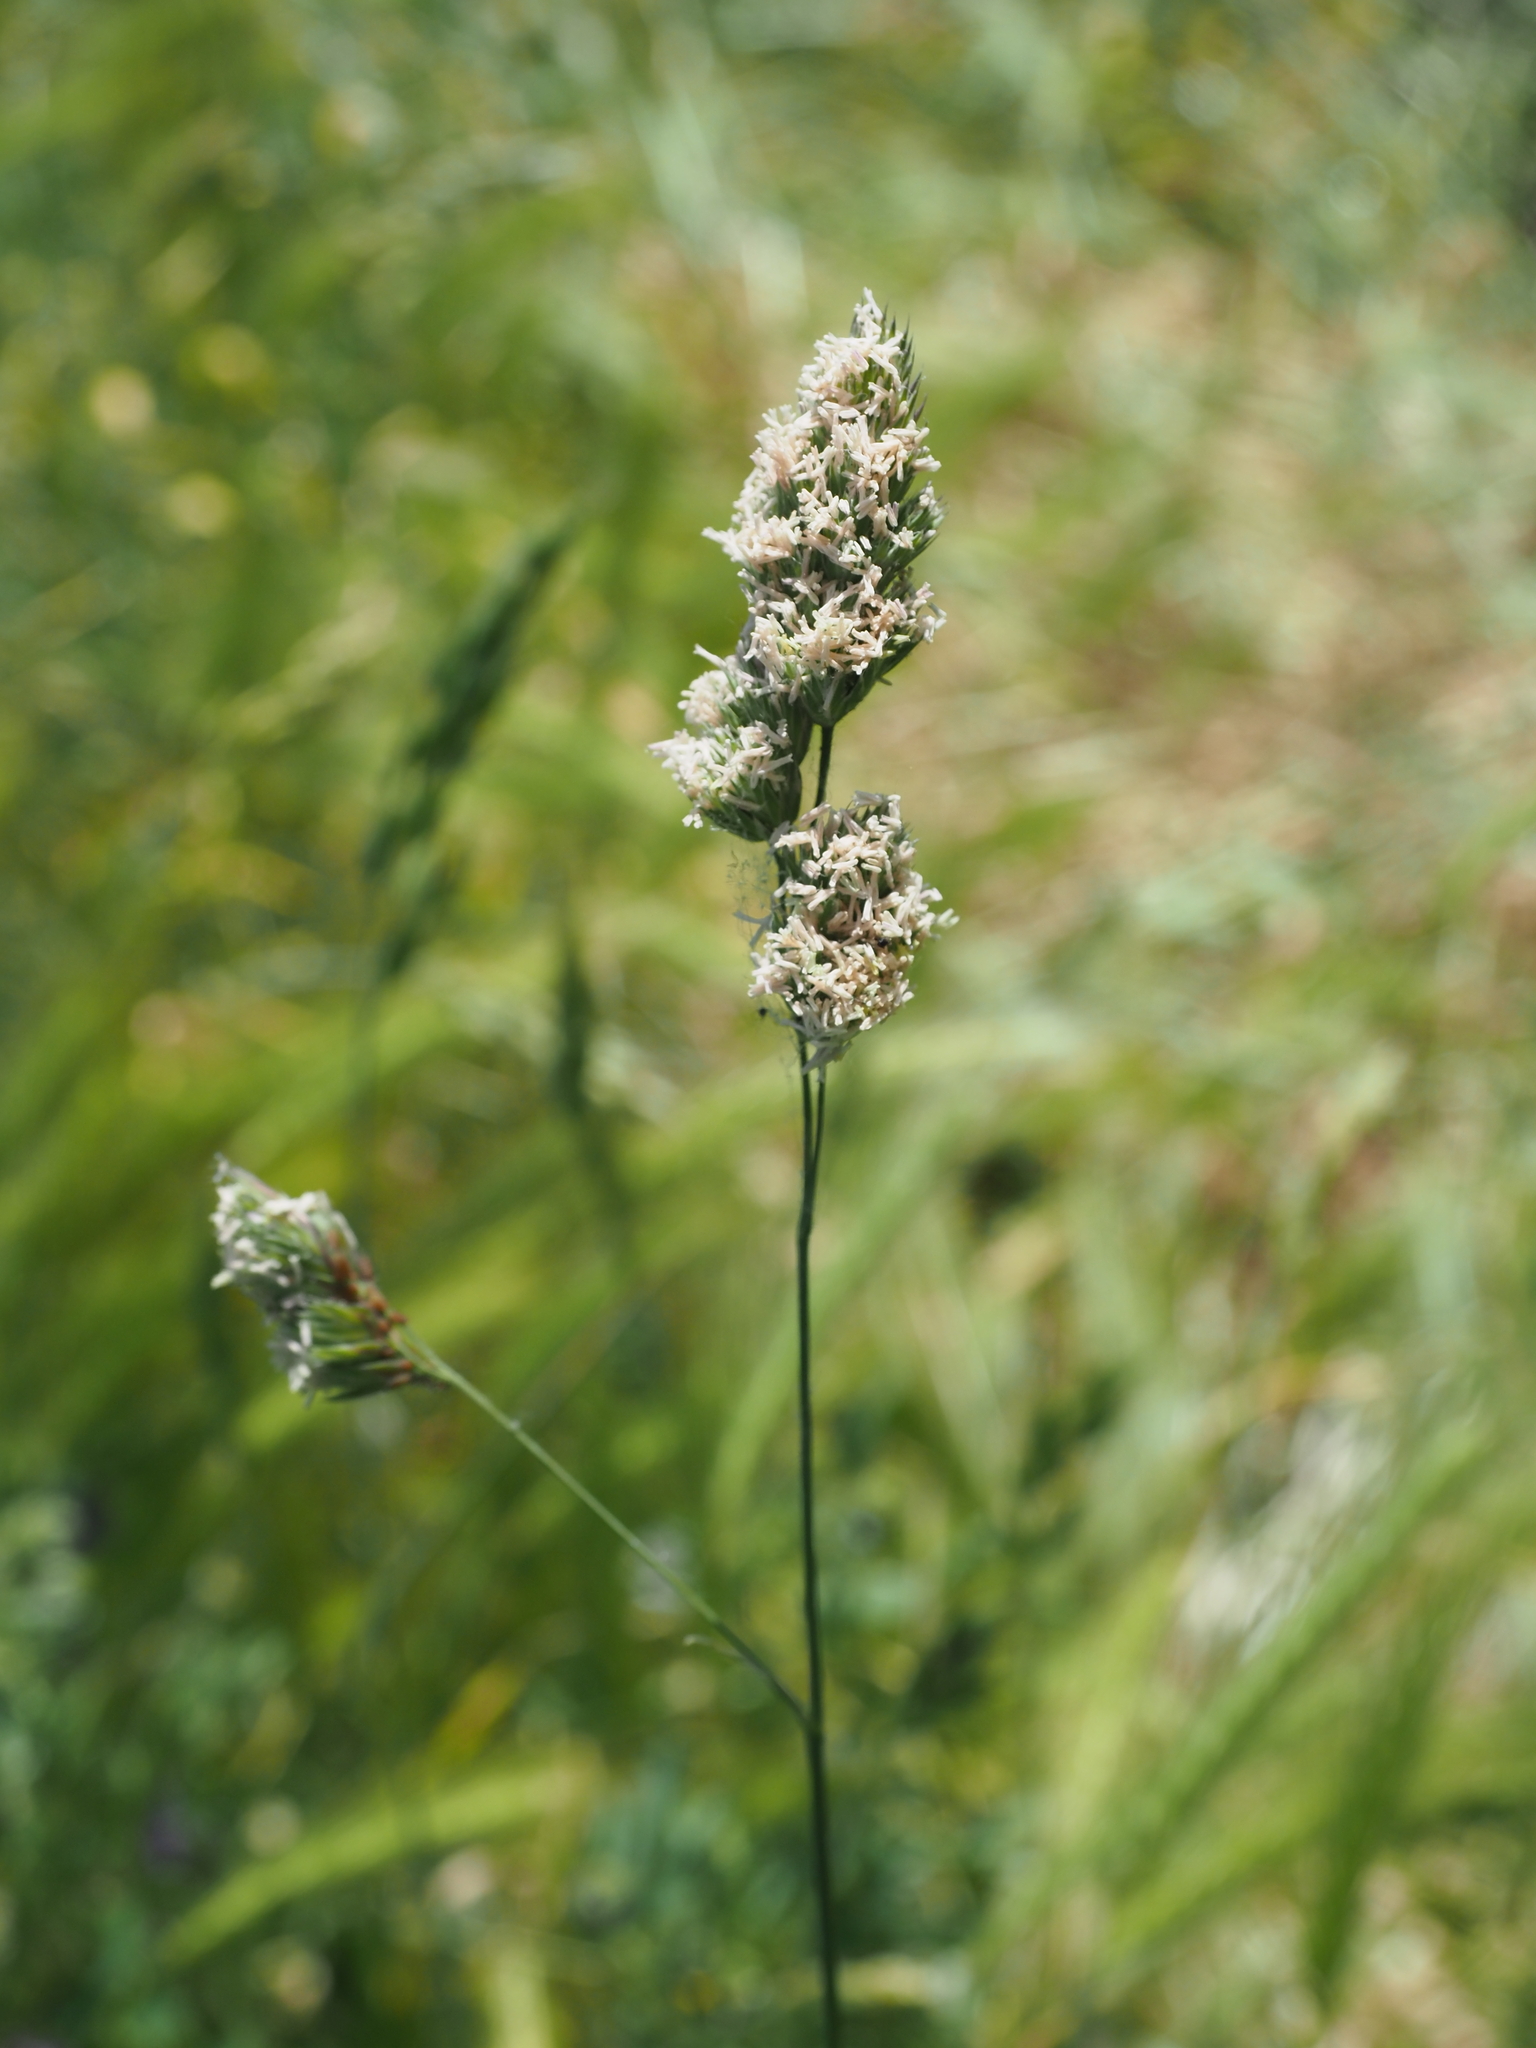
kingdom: Plantae
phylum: Tracheophyta
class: Liliopsida
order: Poales
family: Poaceae
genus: Dactylis
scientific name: Dactylis glomerata
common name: Orchardgrass
